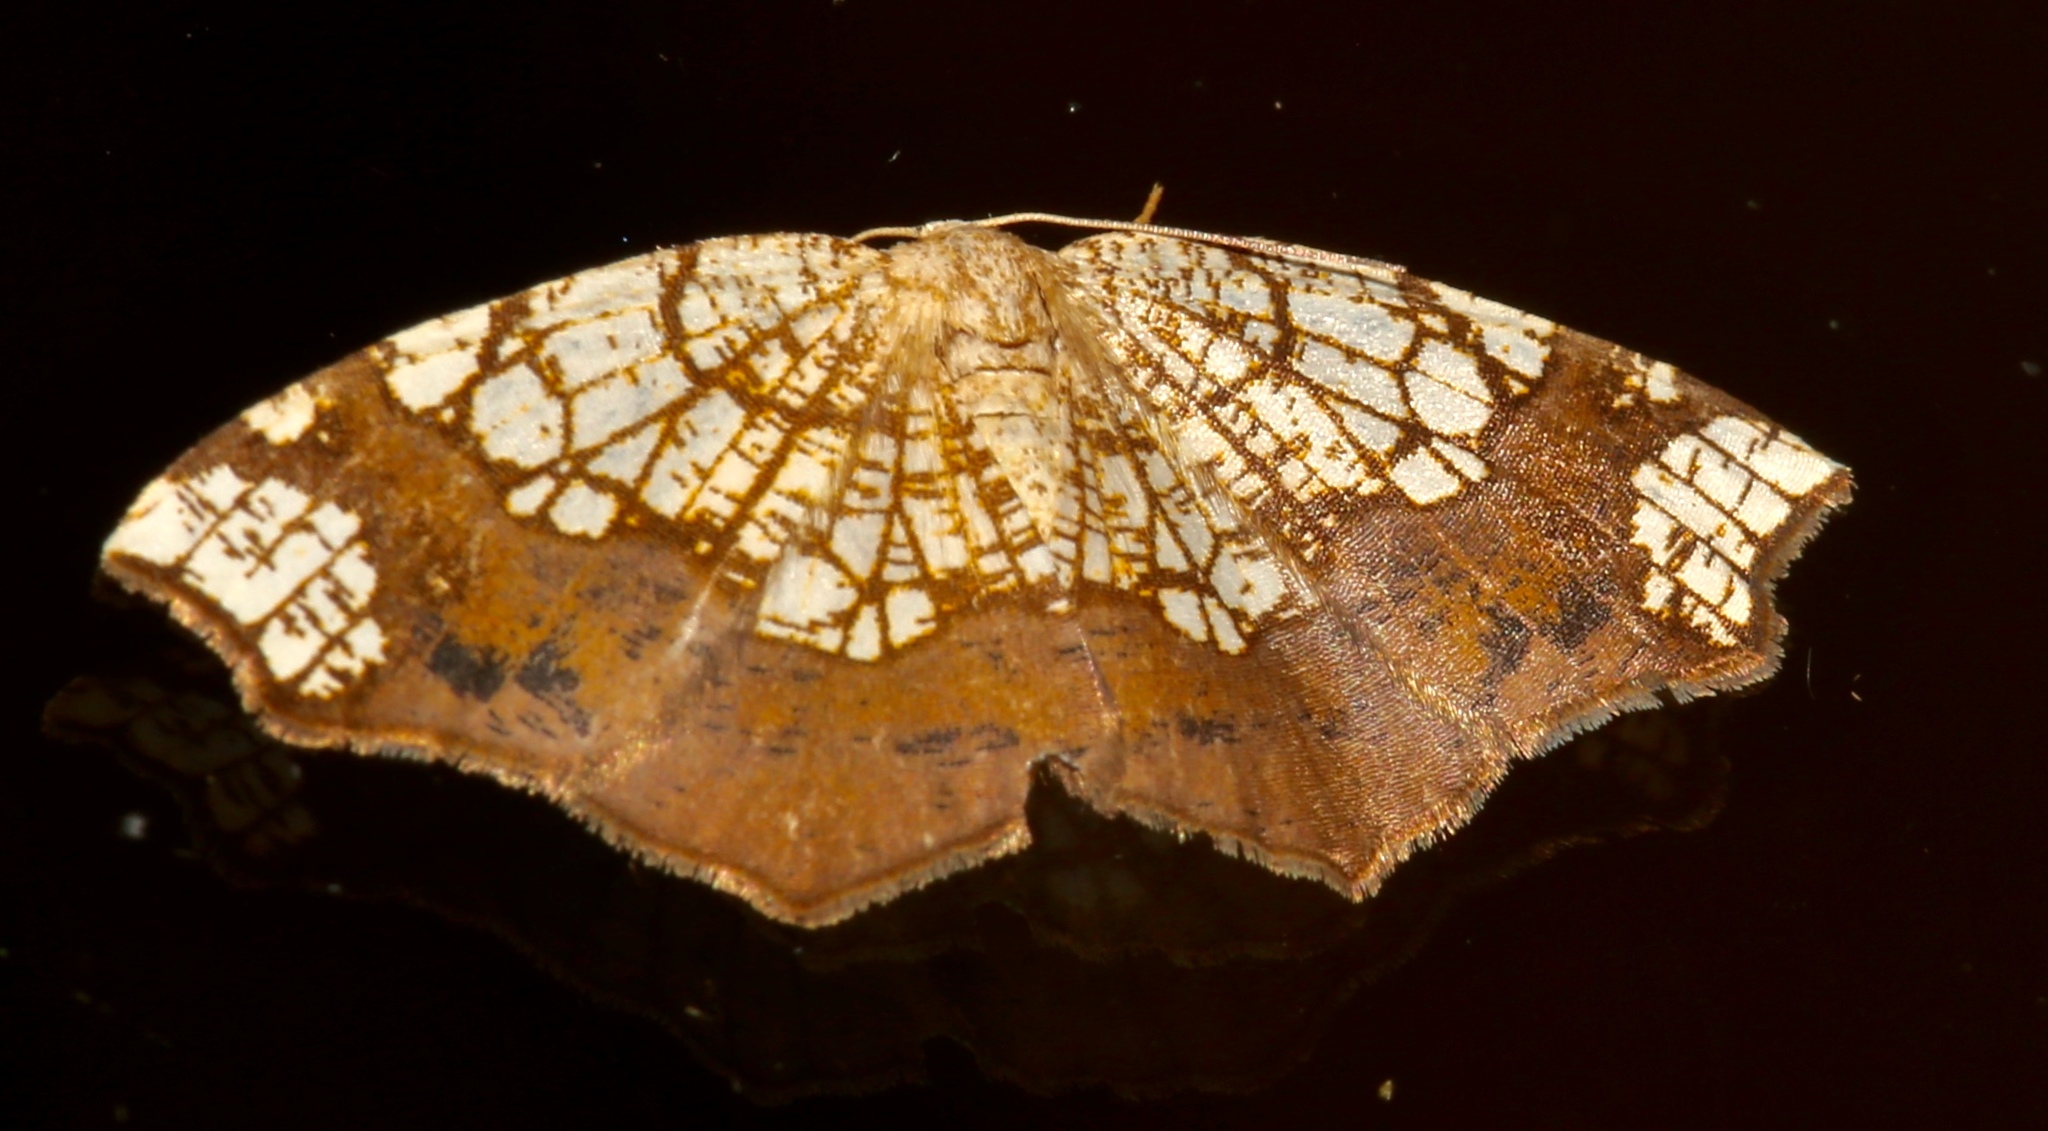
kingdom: Animalia
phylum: Arthropoda
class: Insecta
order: Lepidoptera
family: Geometridae
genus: Nematocampa
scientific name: Nematocampa resistaria
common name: Horned spanworm moth
